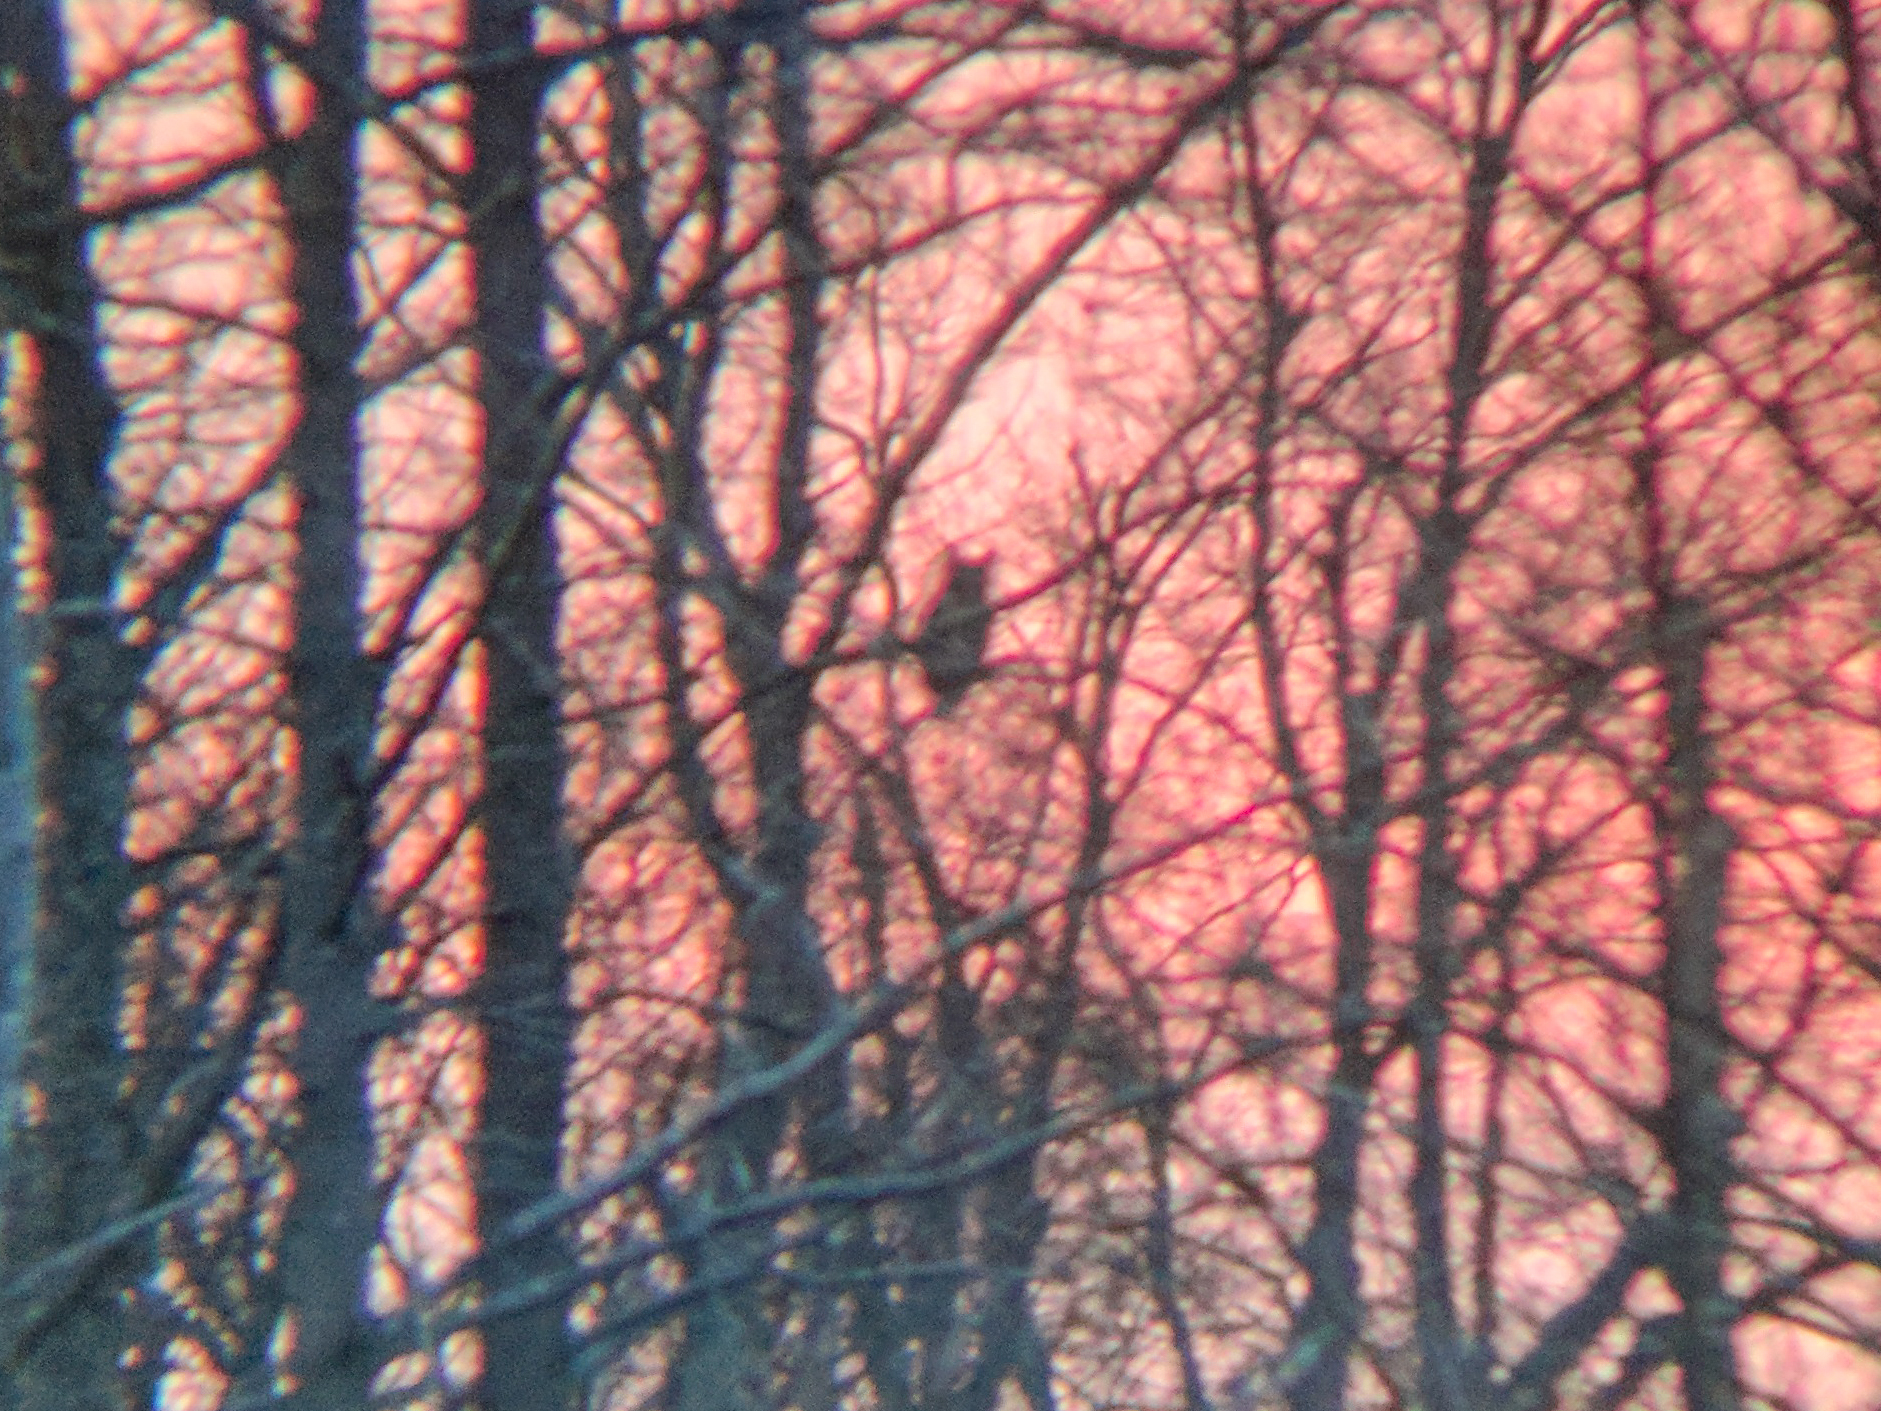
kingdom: Animalia
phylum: Chordata
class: Aves
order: Strigiformes
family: Strigidae
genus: Bubo
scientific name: Bubo virginianus
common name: Great horned owl
